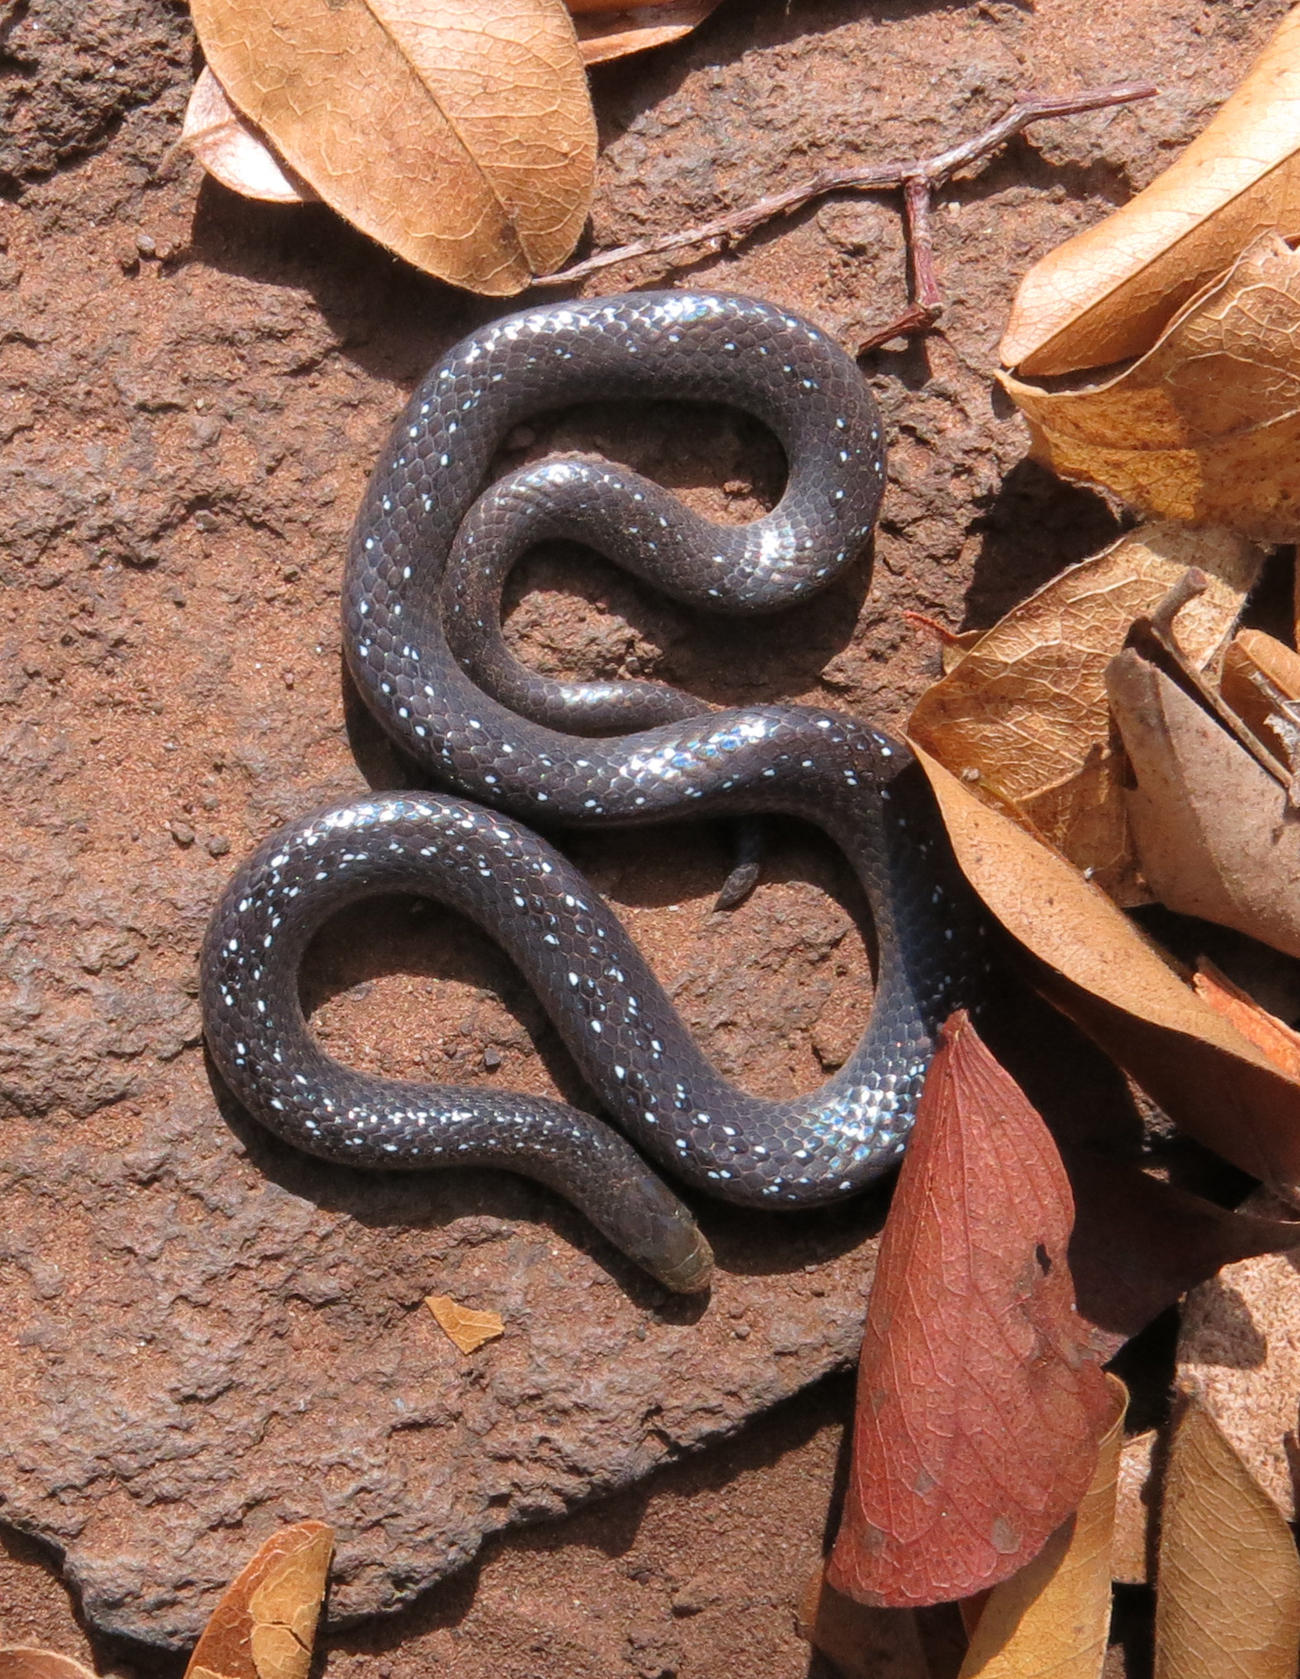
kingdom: Animalia
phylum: Chordata
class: Squamata
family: Prosymnidae
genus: Prosymna
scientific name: Prosymna stuhlmanni
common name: East african shovel-snout snake
